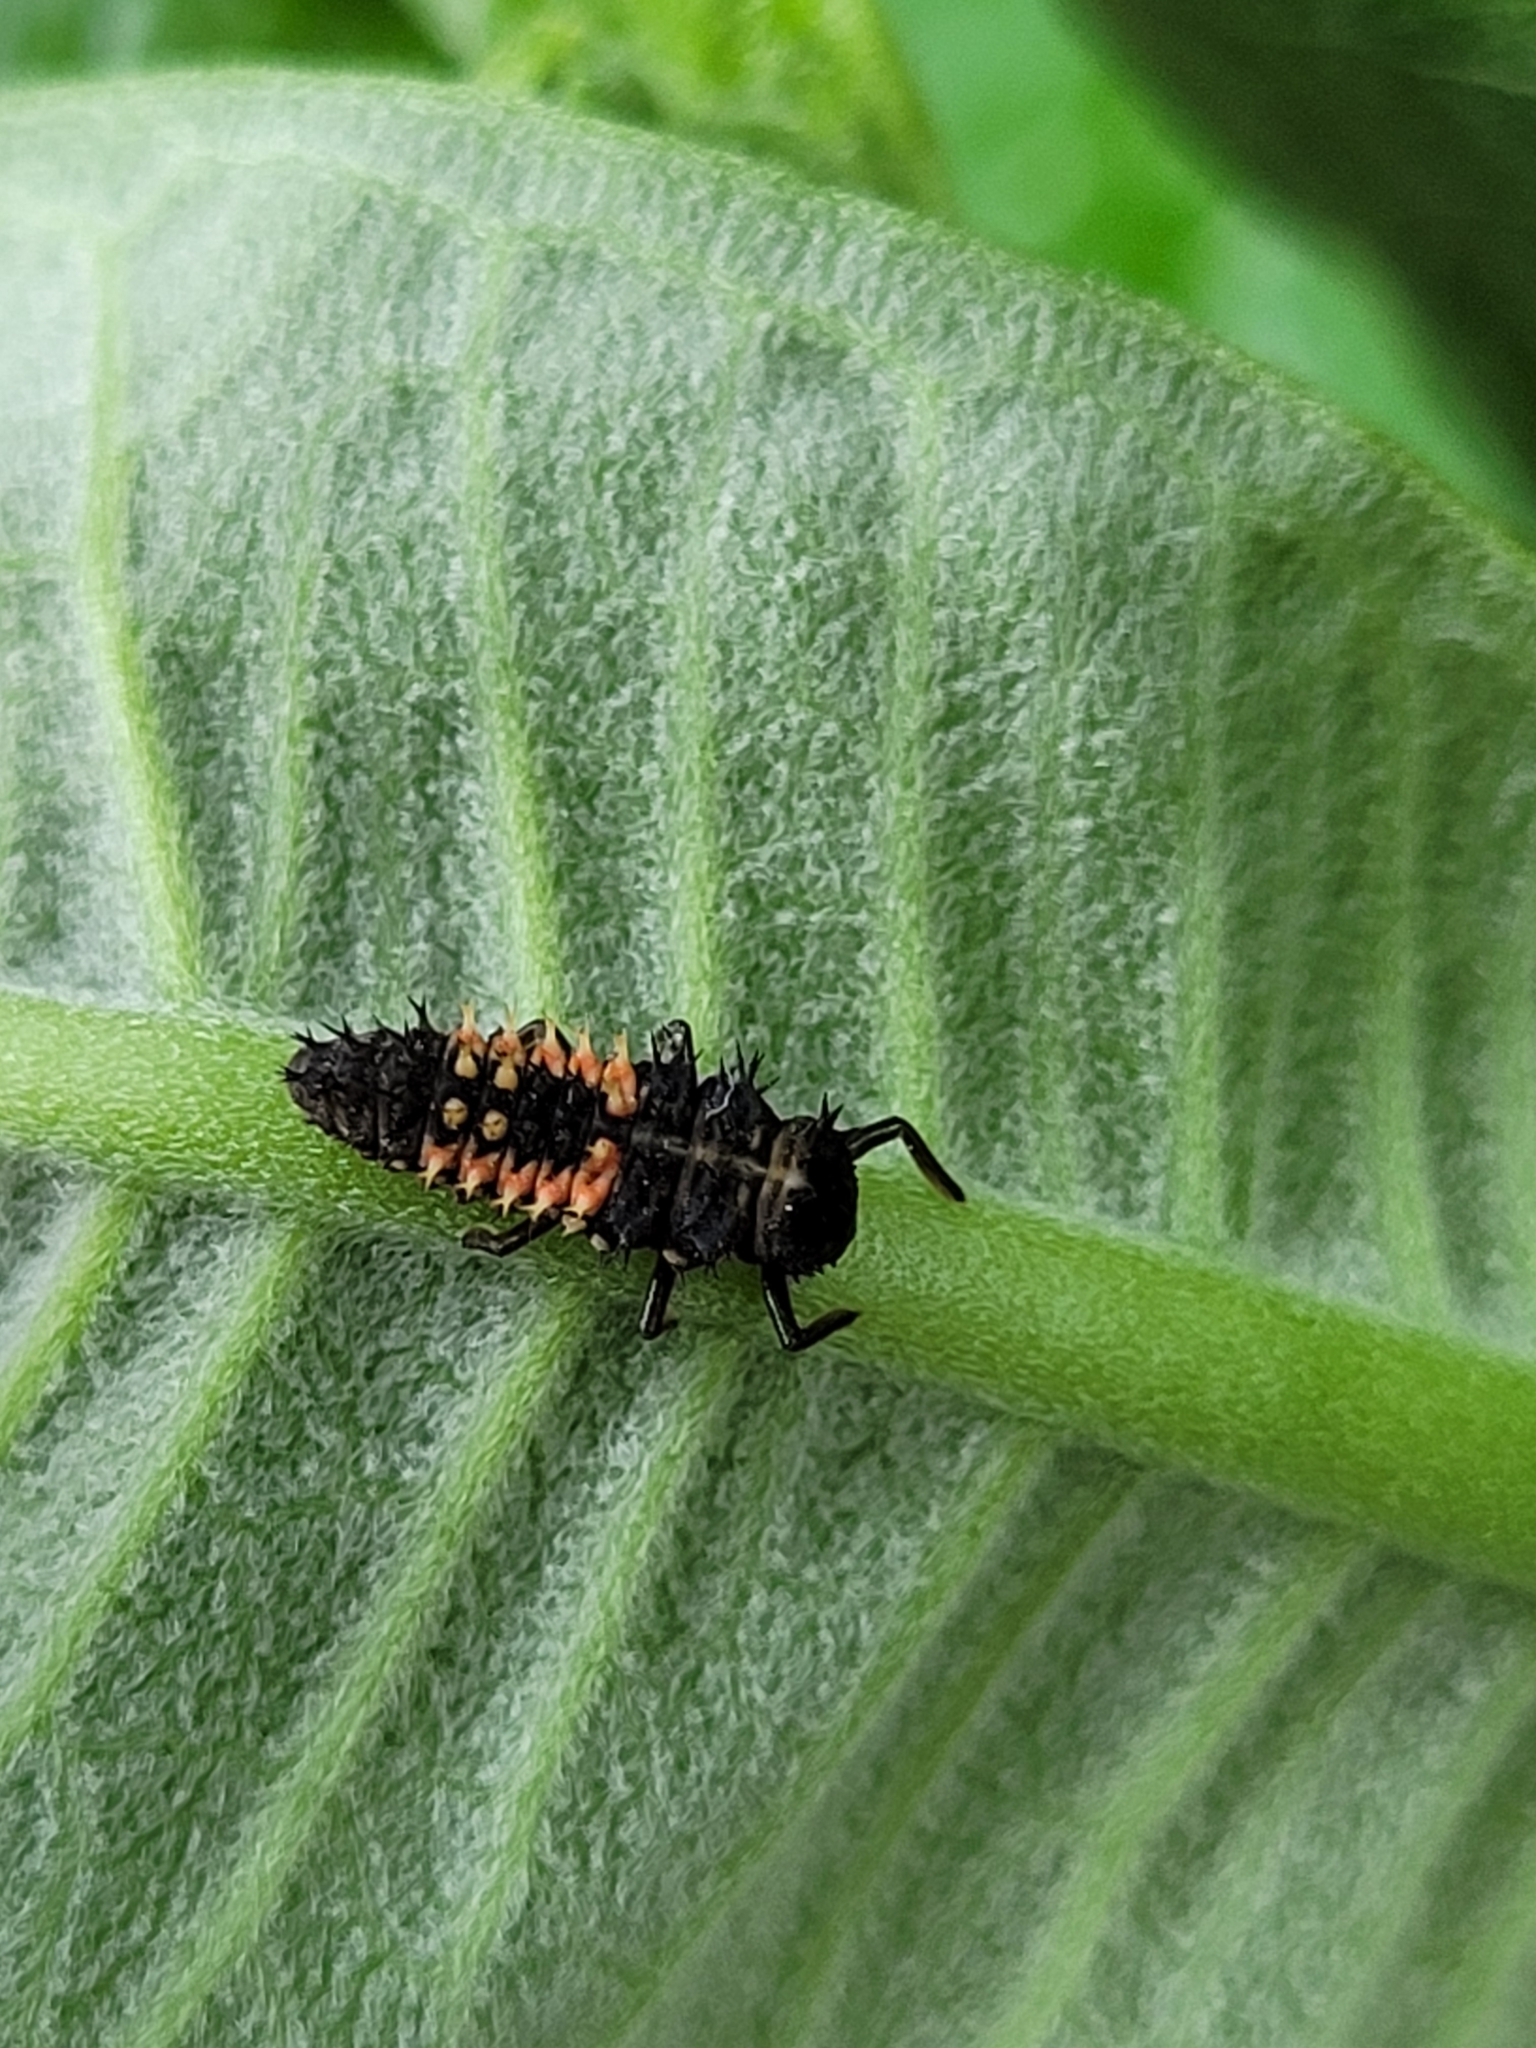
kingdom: Animalia
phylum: Arthropoda
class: Insecta
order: Coleoptera
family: Coccinellidae
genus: Harmonia
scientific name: Harmonia axyridis
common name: Harlequin ladybird
